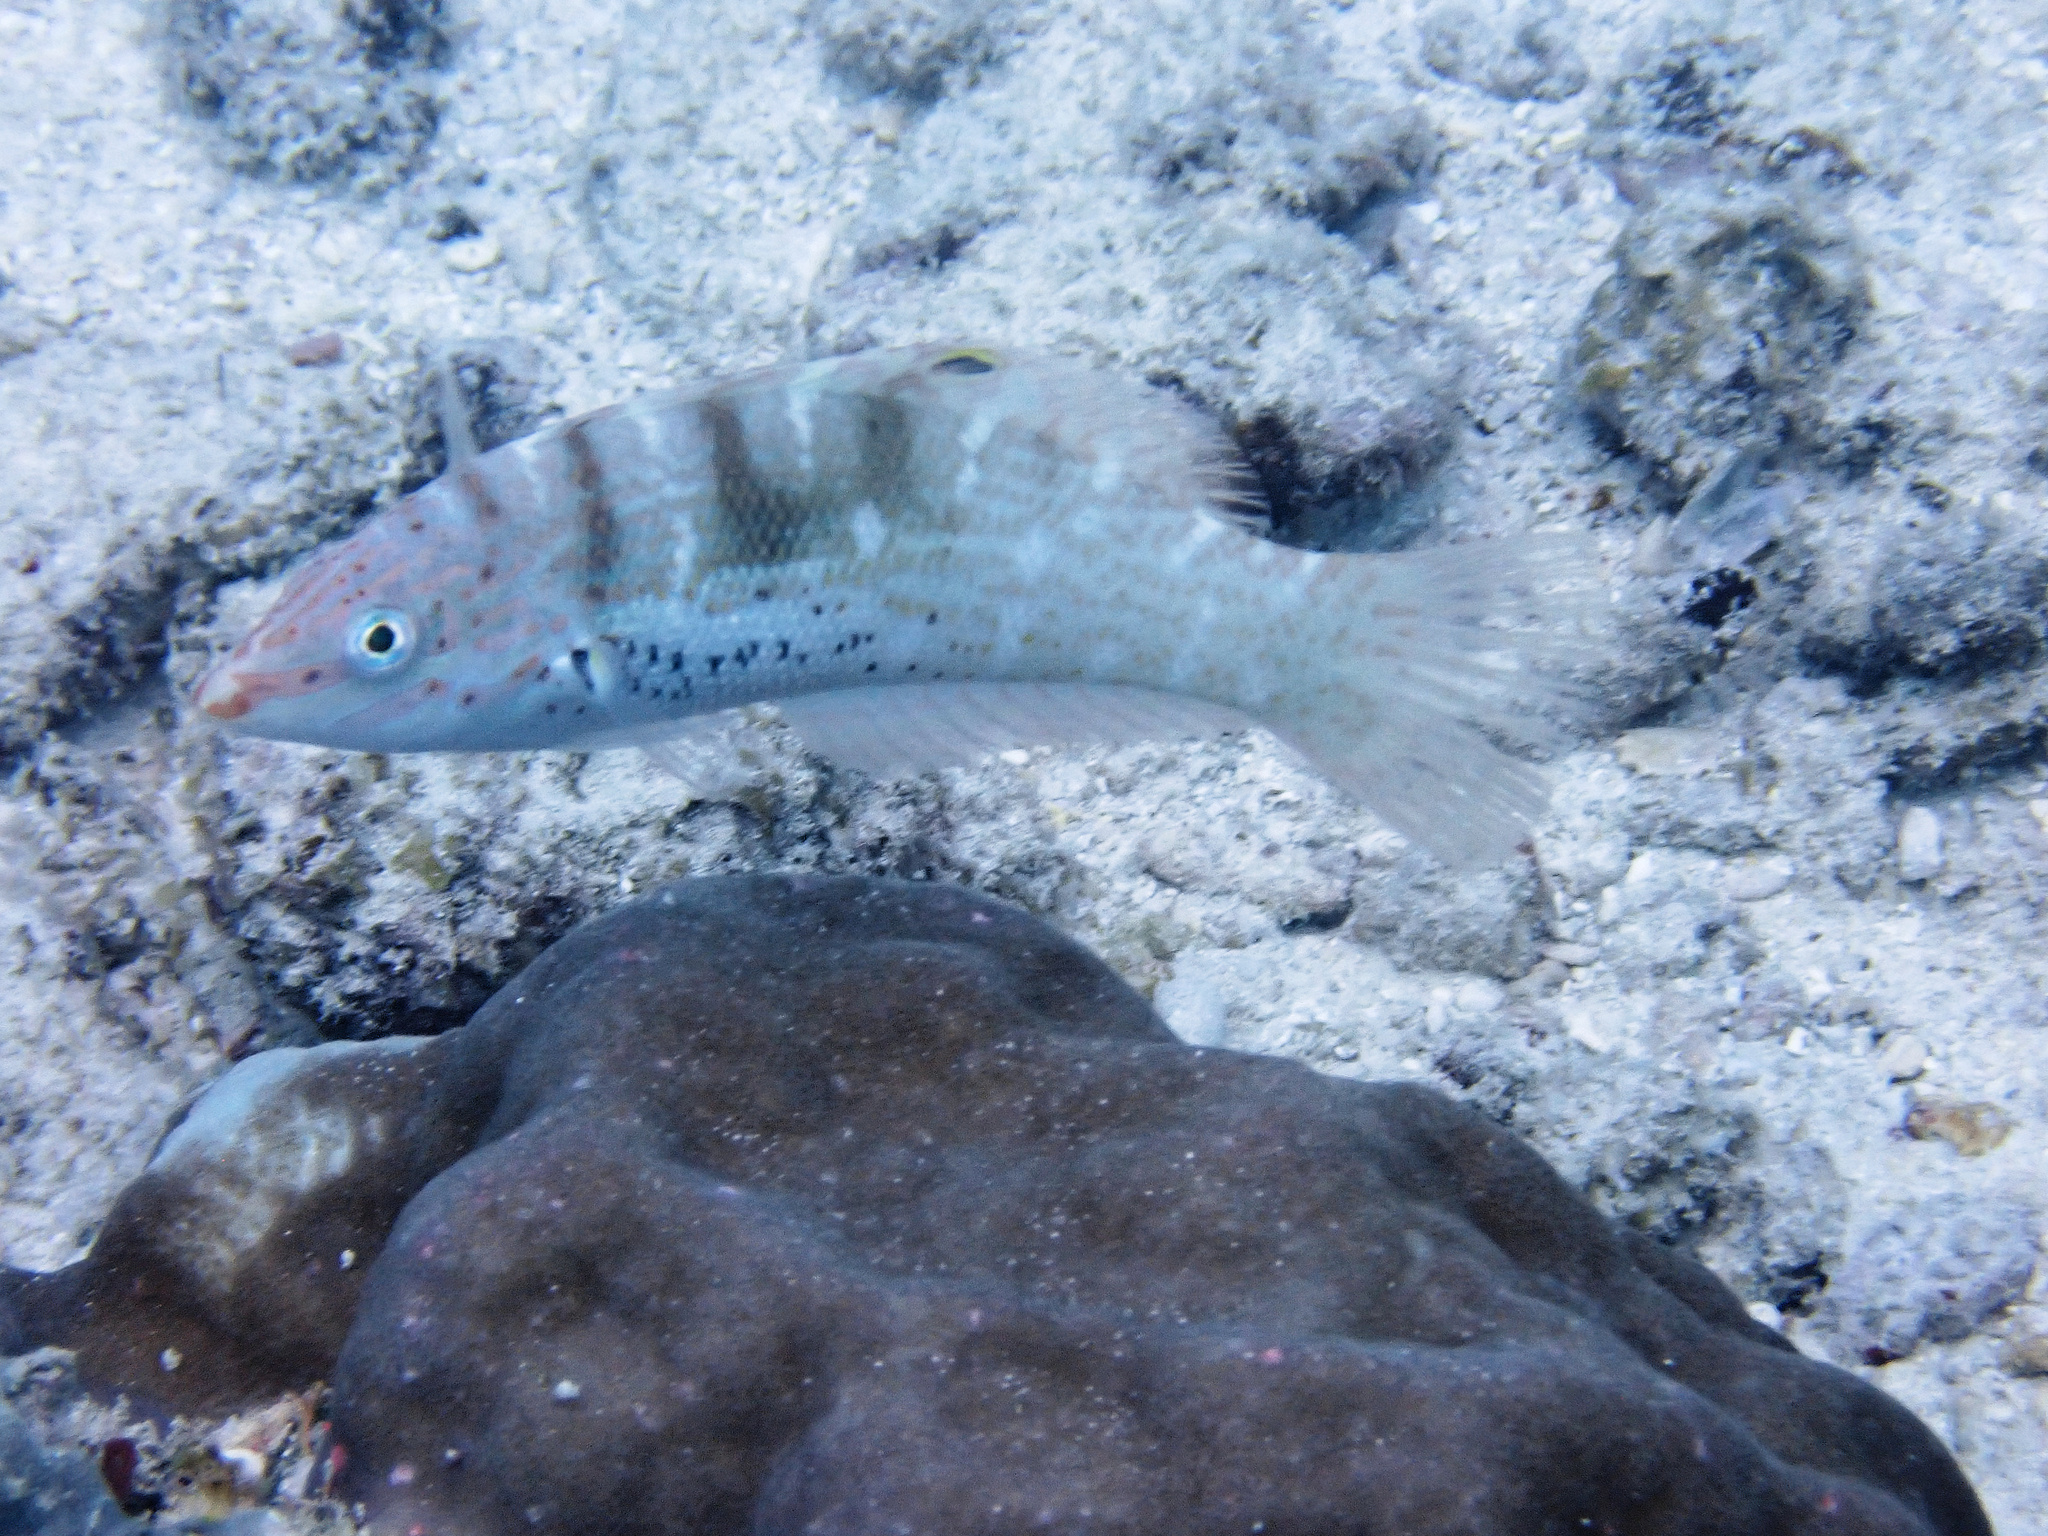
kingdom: Animalia
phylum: Chordata
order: Perciformes
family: Labridae
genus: Coris
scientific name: Coris batuensis
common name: Batu coris
